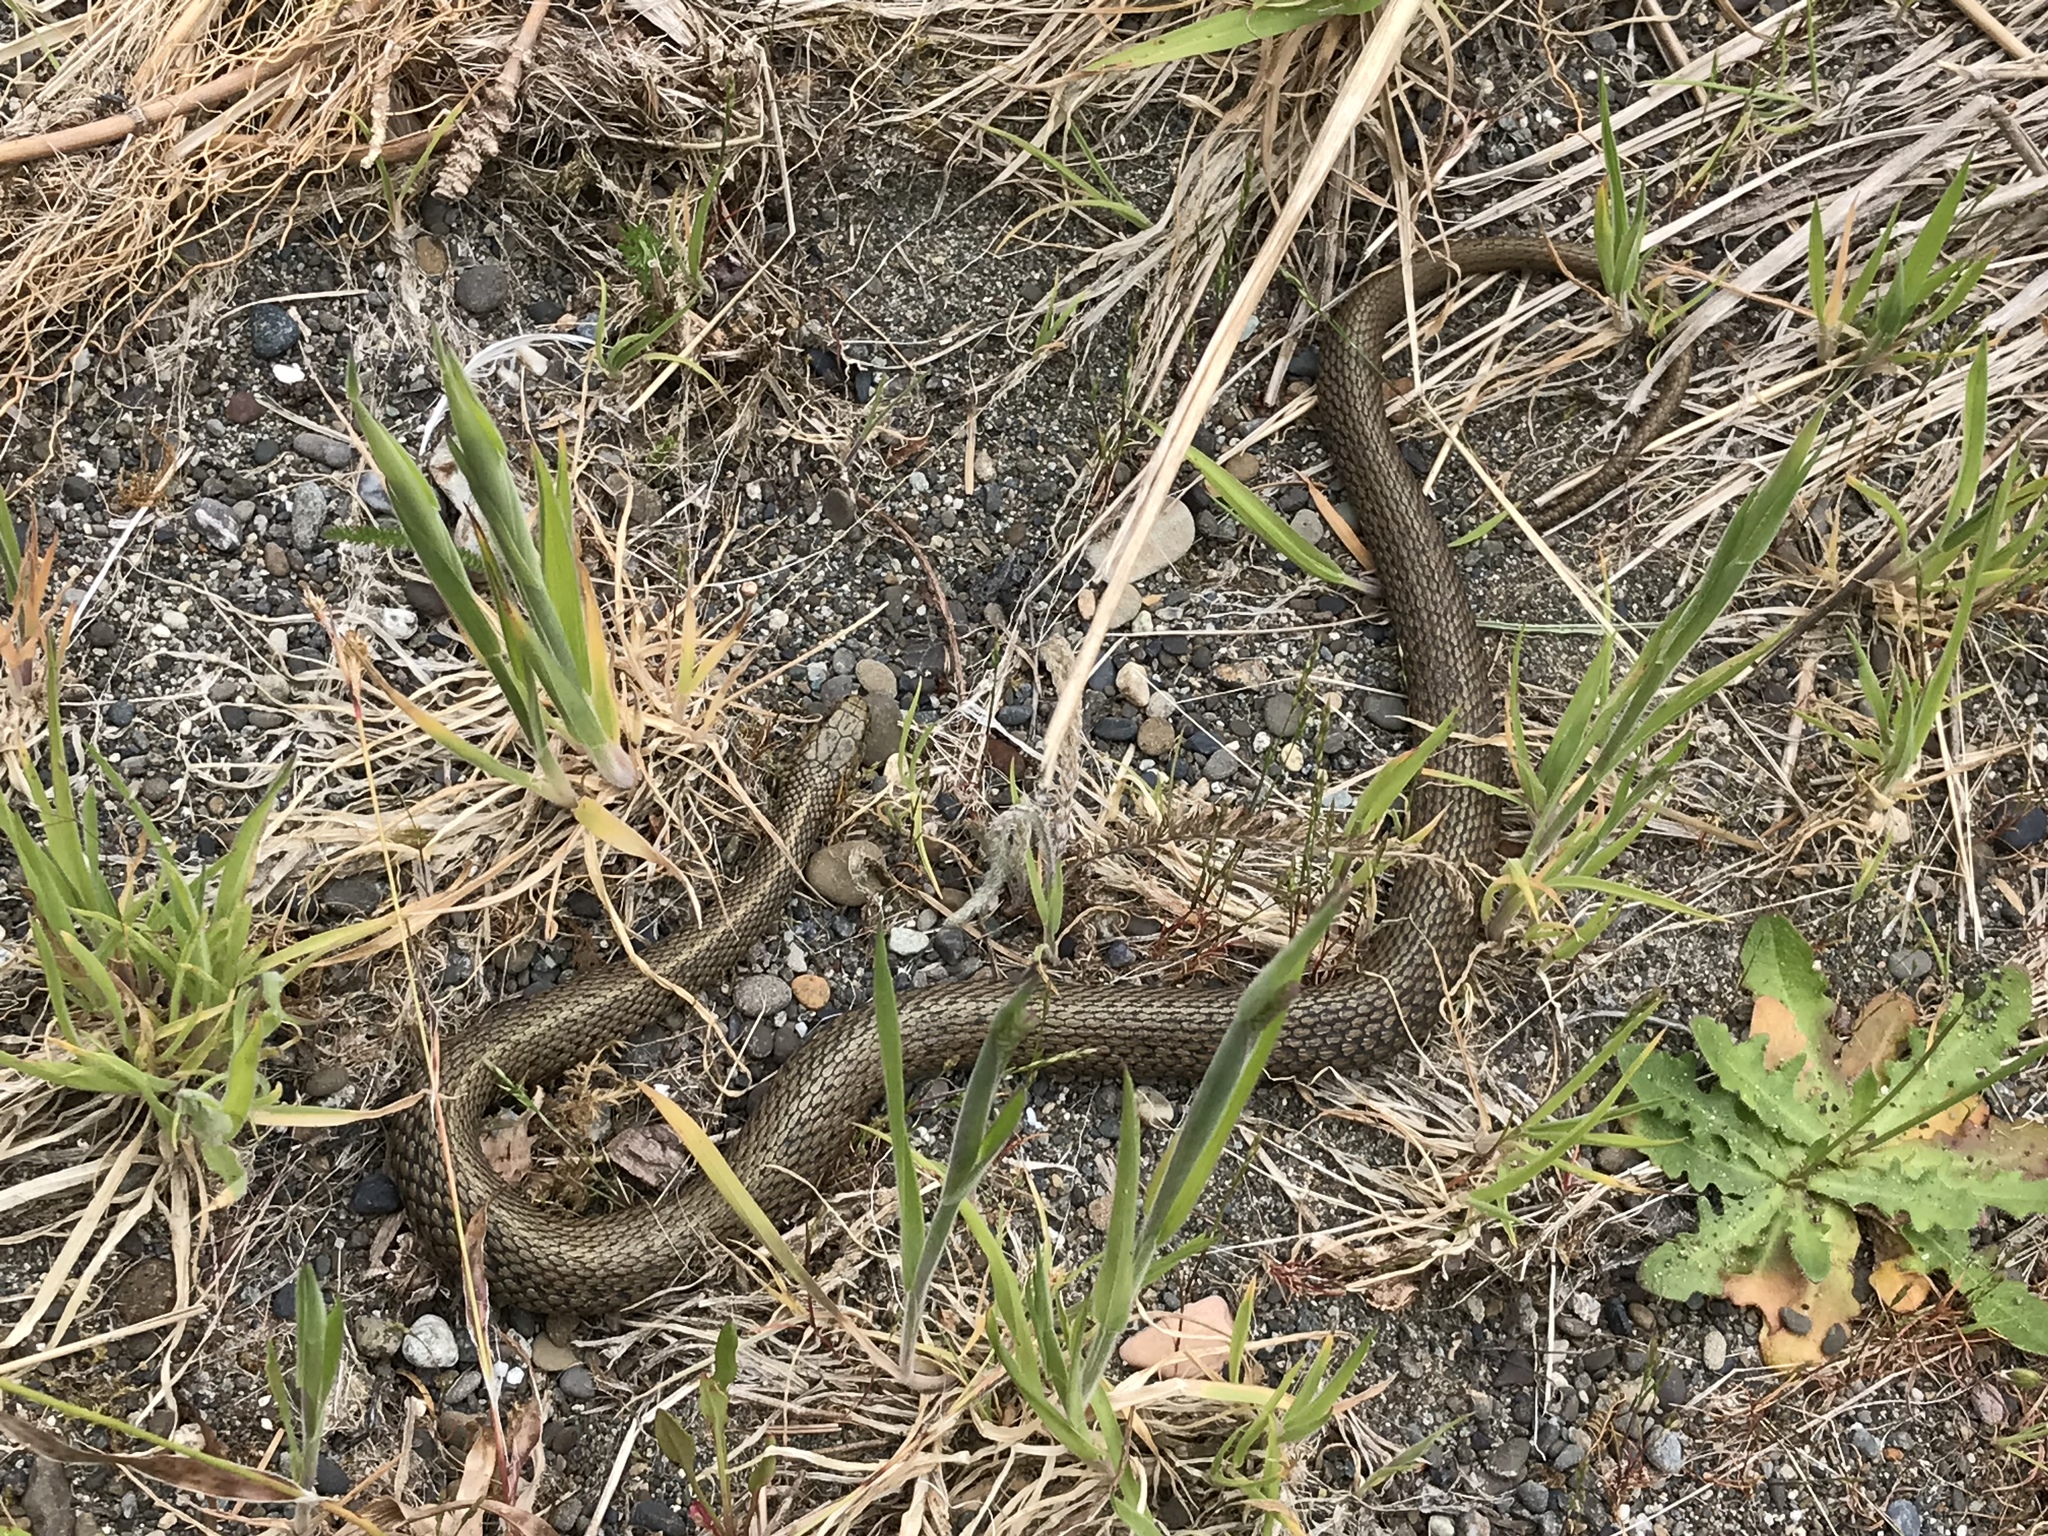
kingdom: Animalia
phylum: Chordata
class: Squamata
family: Colubridae
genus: Thamnophis
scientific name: Thamnophis ordinoides
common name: Northwestern garter snake
